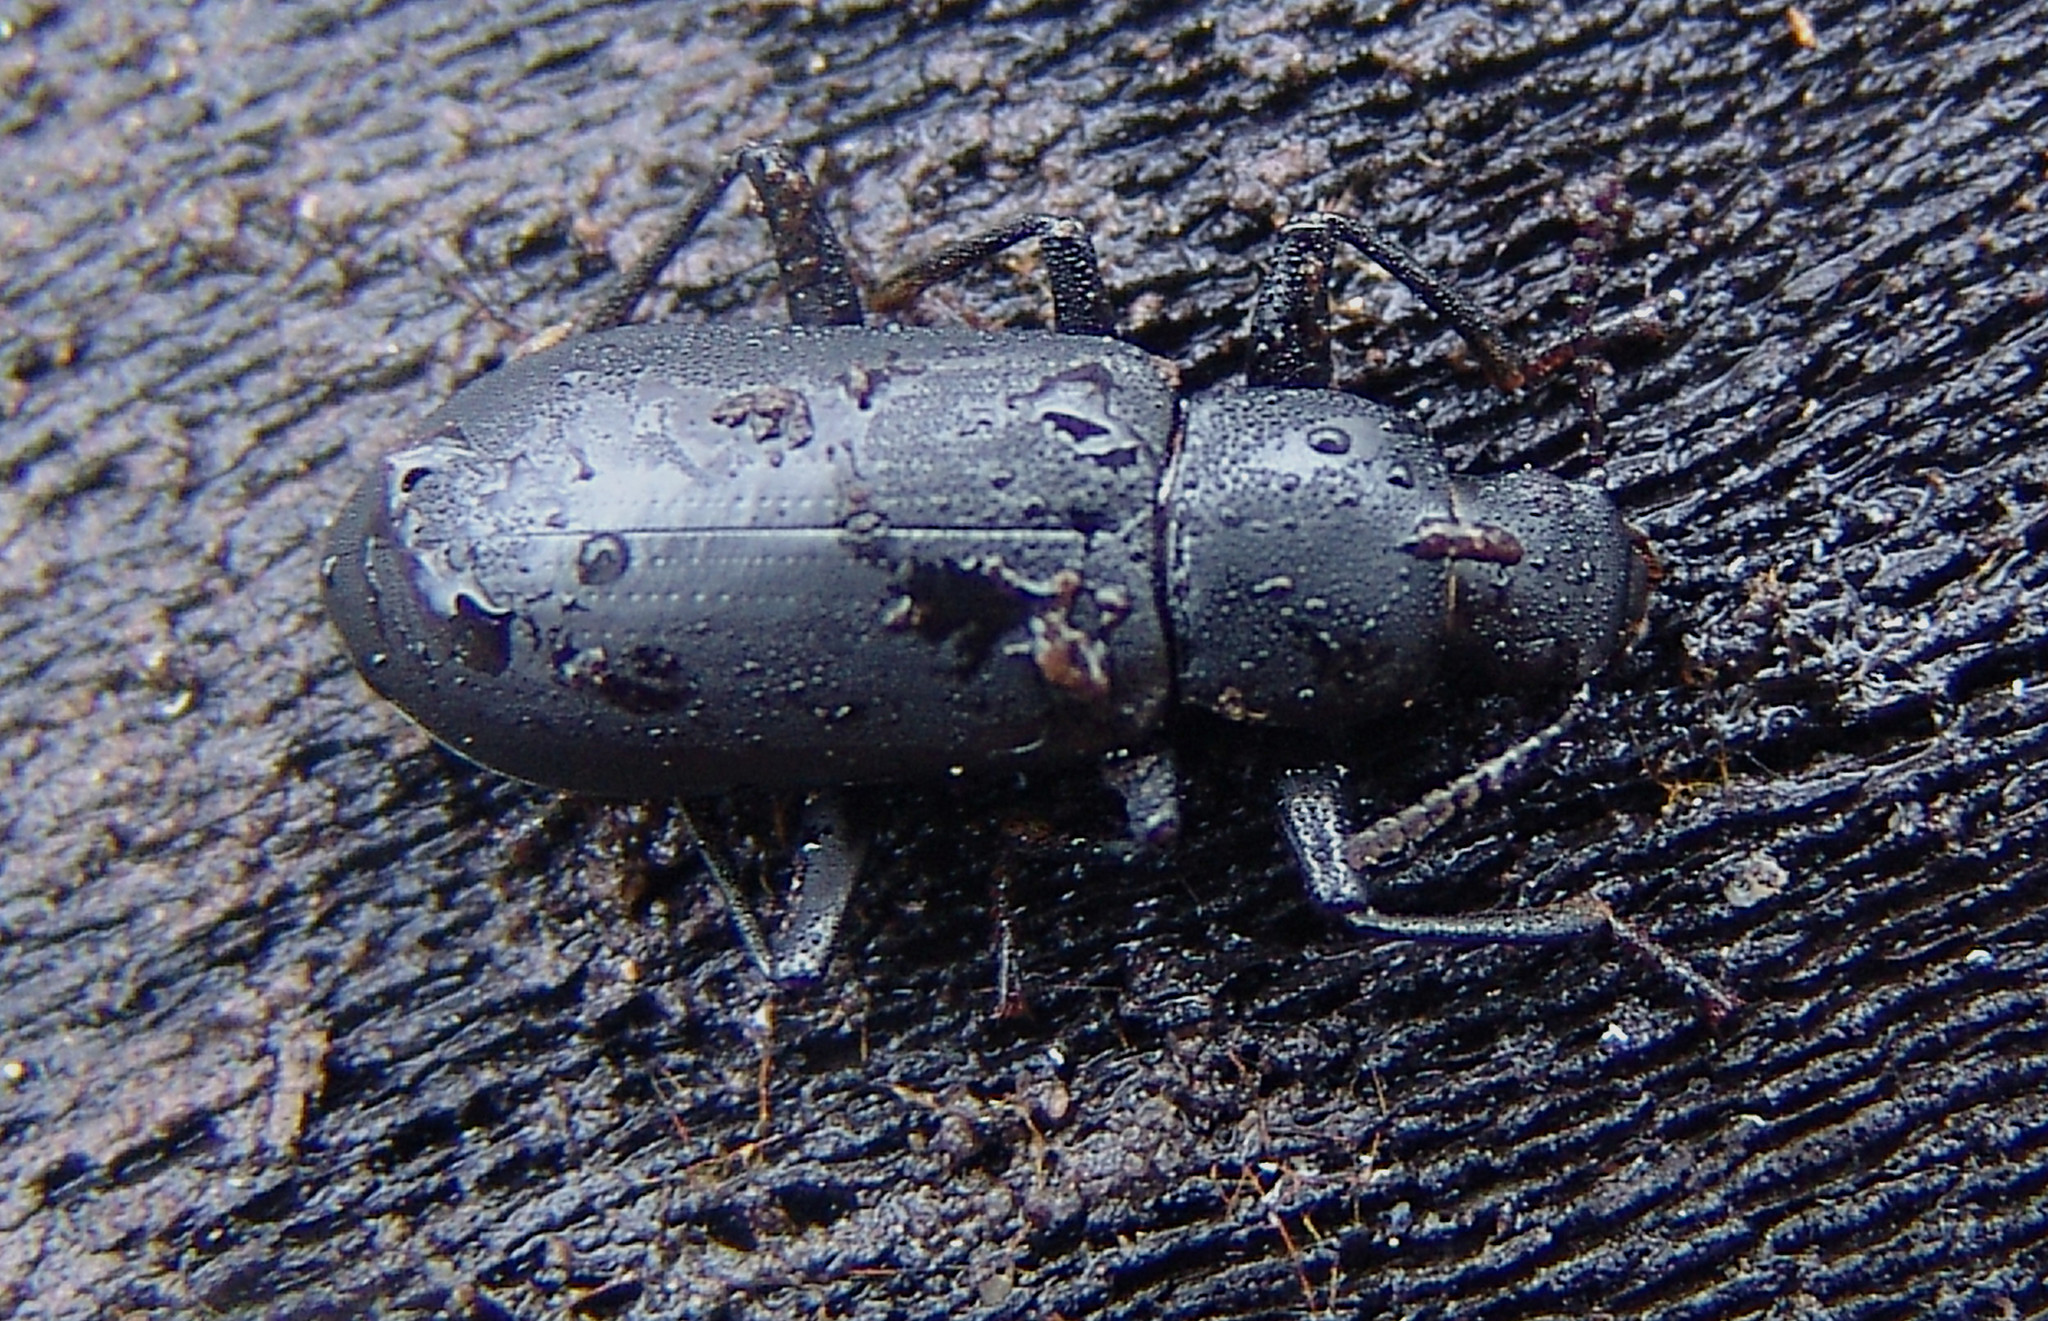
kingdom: Animalia
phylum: Arthropoda
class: Insecta
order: Coleoptera
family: Tenebrionidae
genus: Alobates
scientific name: Alobates
